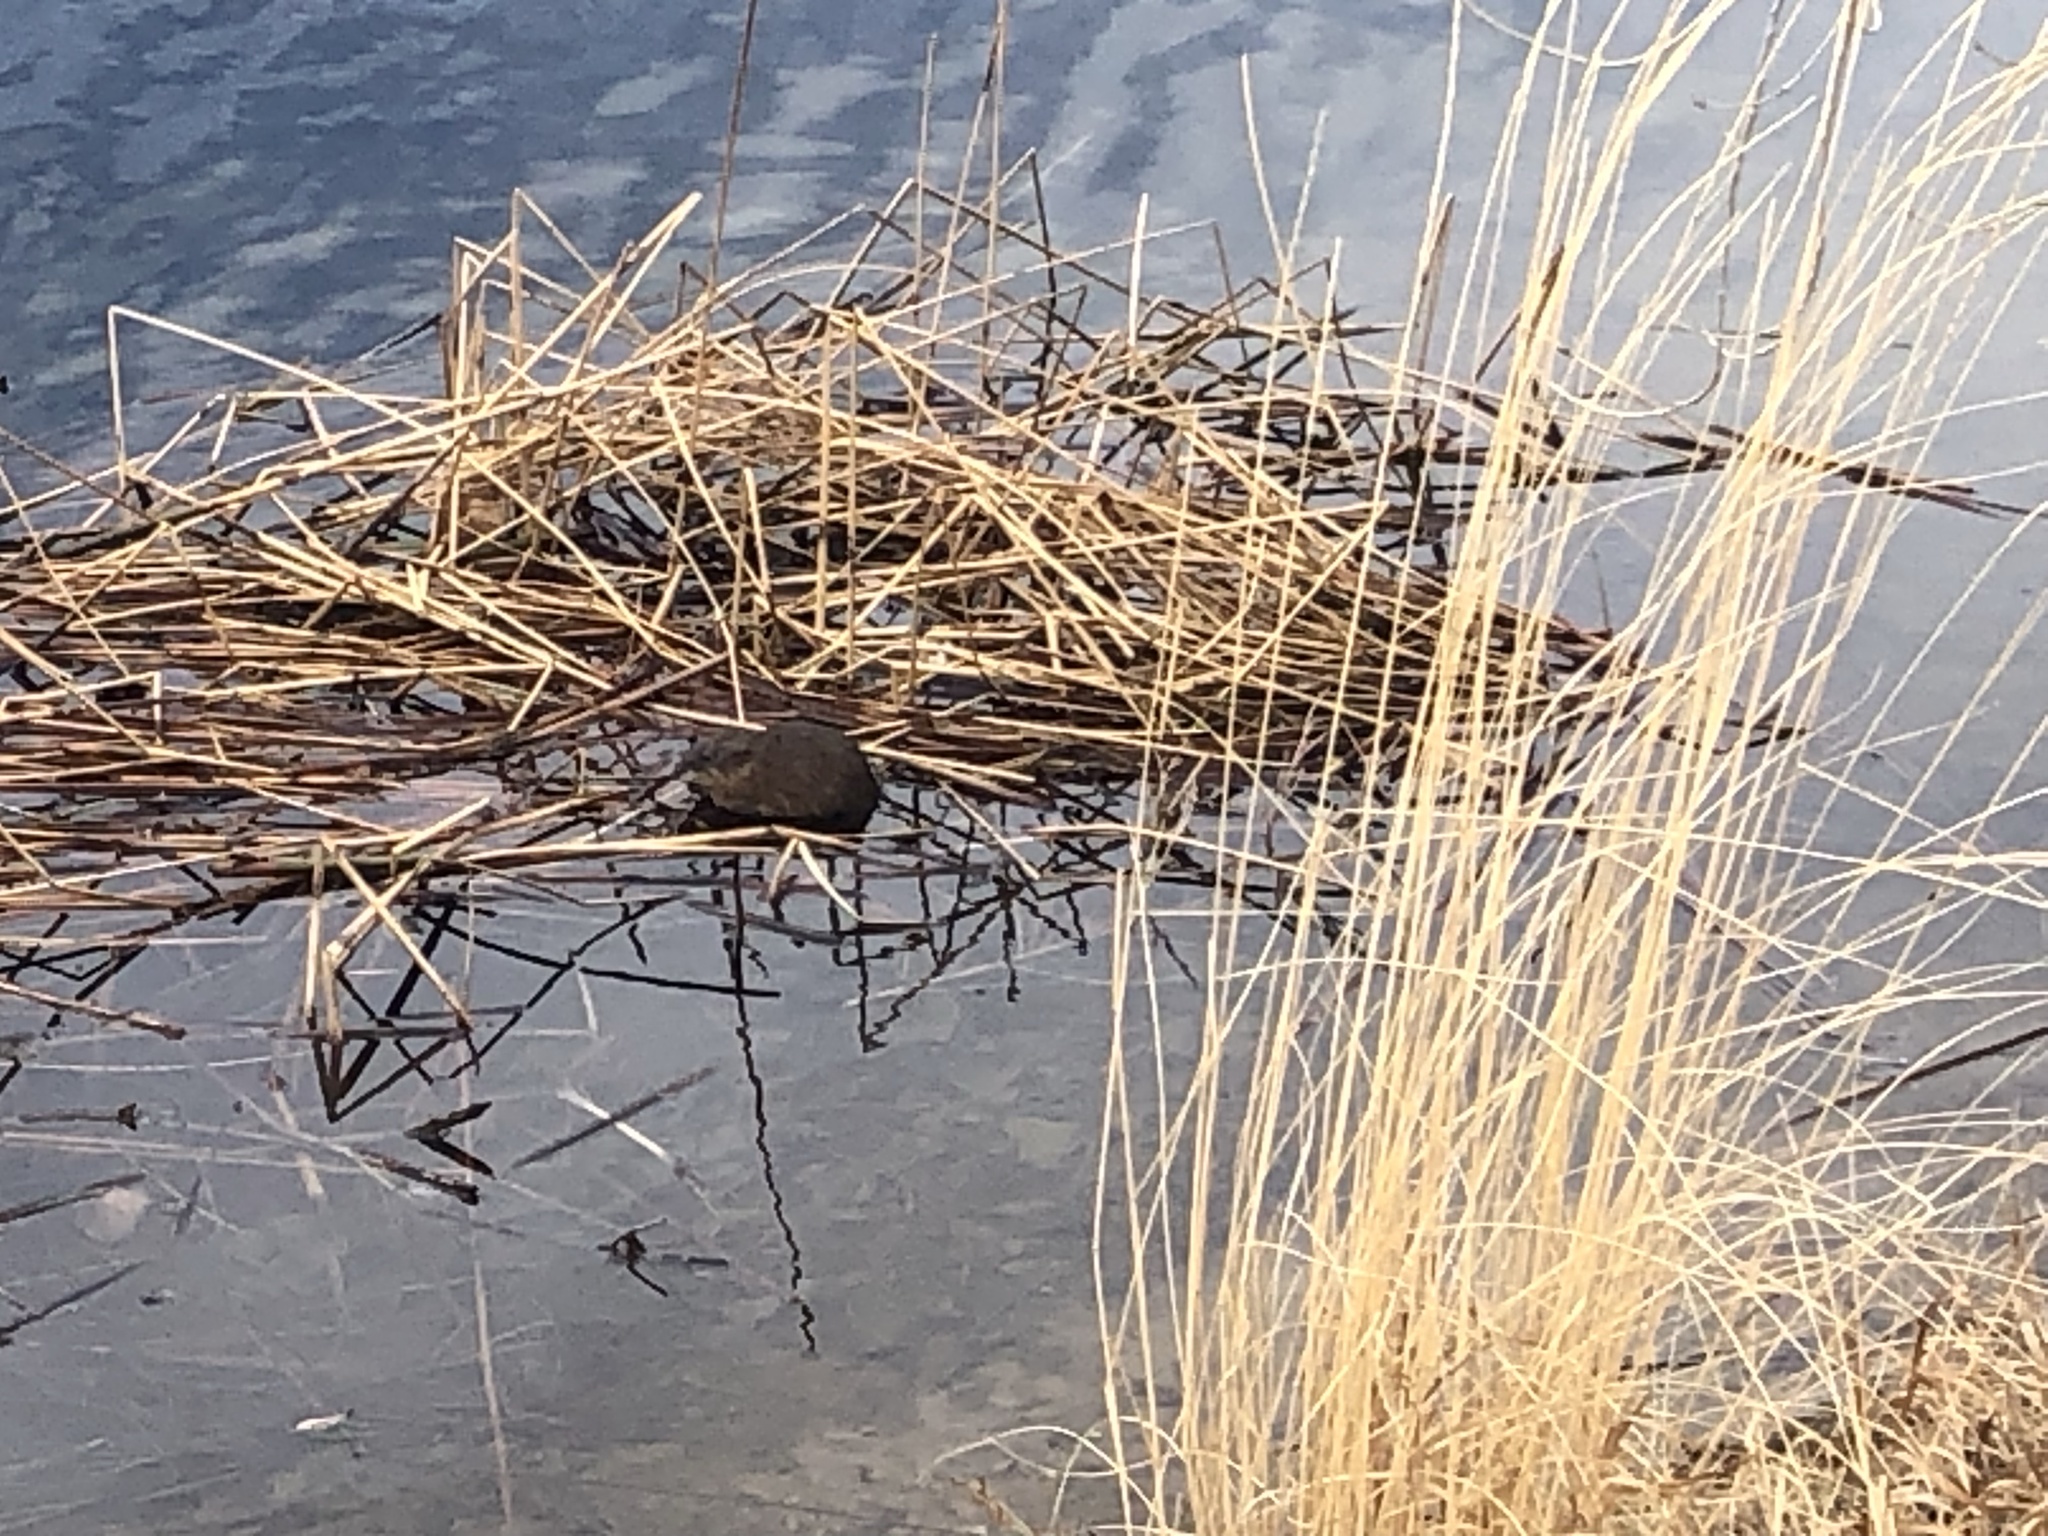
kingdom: Animalia
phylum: Chordata
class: Mammalia
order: Rodentia
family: Cricetidae
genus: Ondatra
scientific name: Ondatra zibethicus
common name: Muskrat
